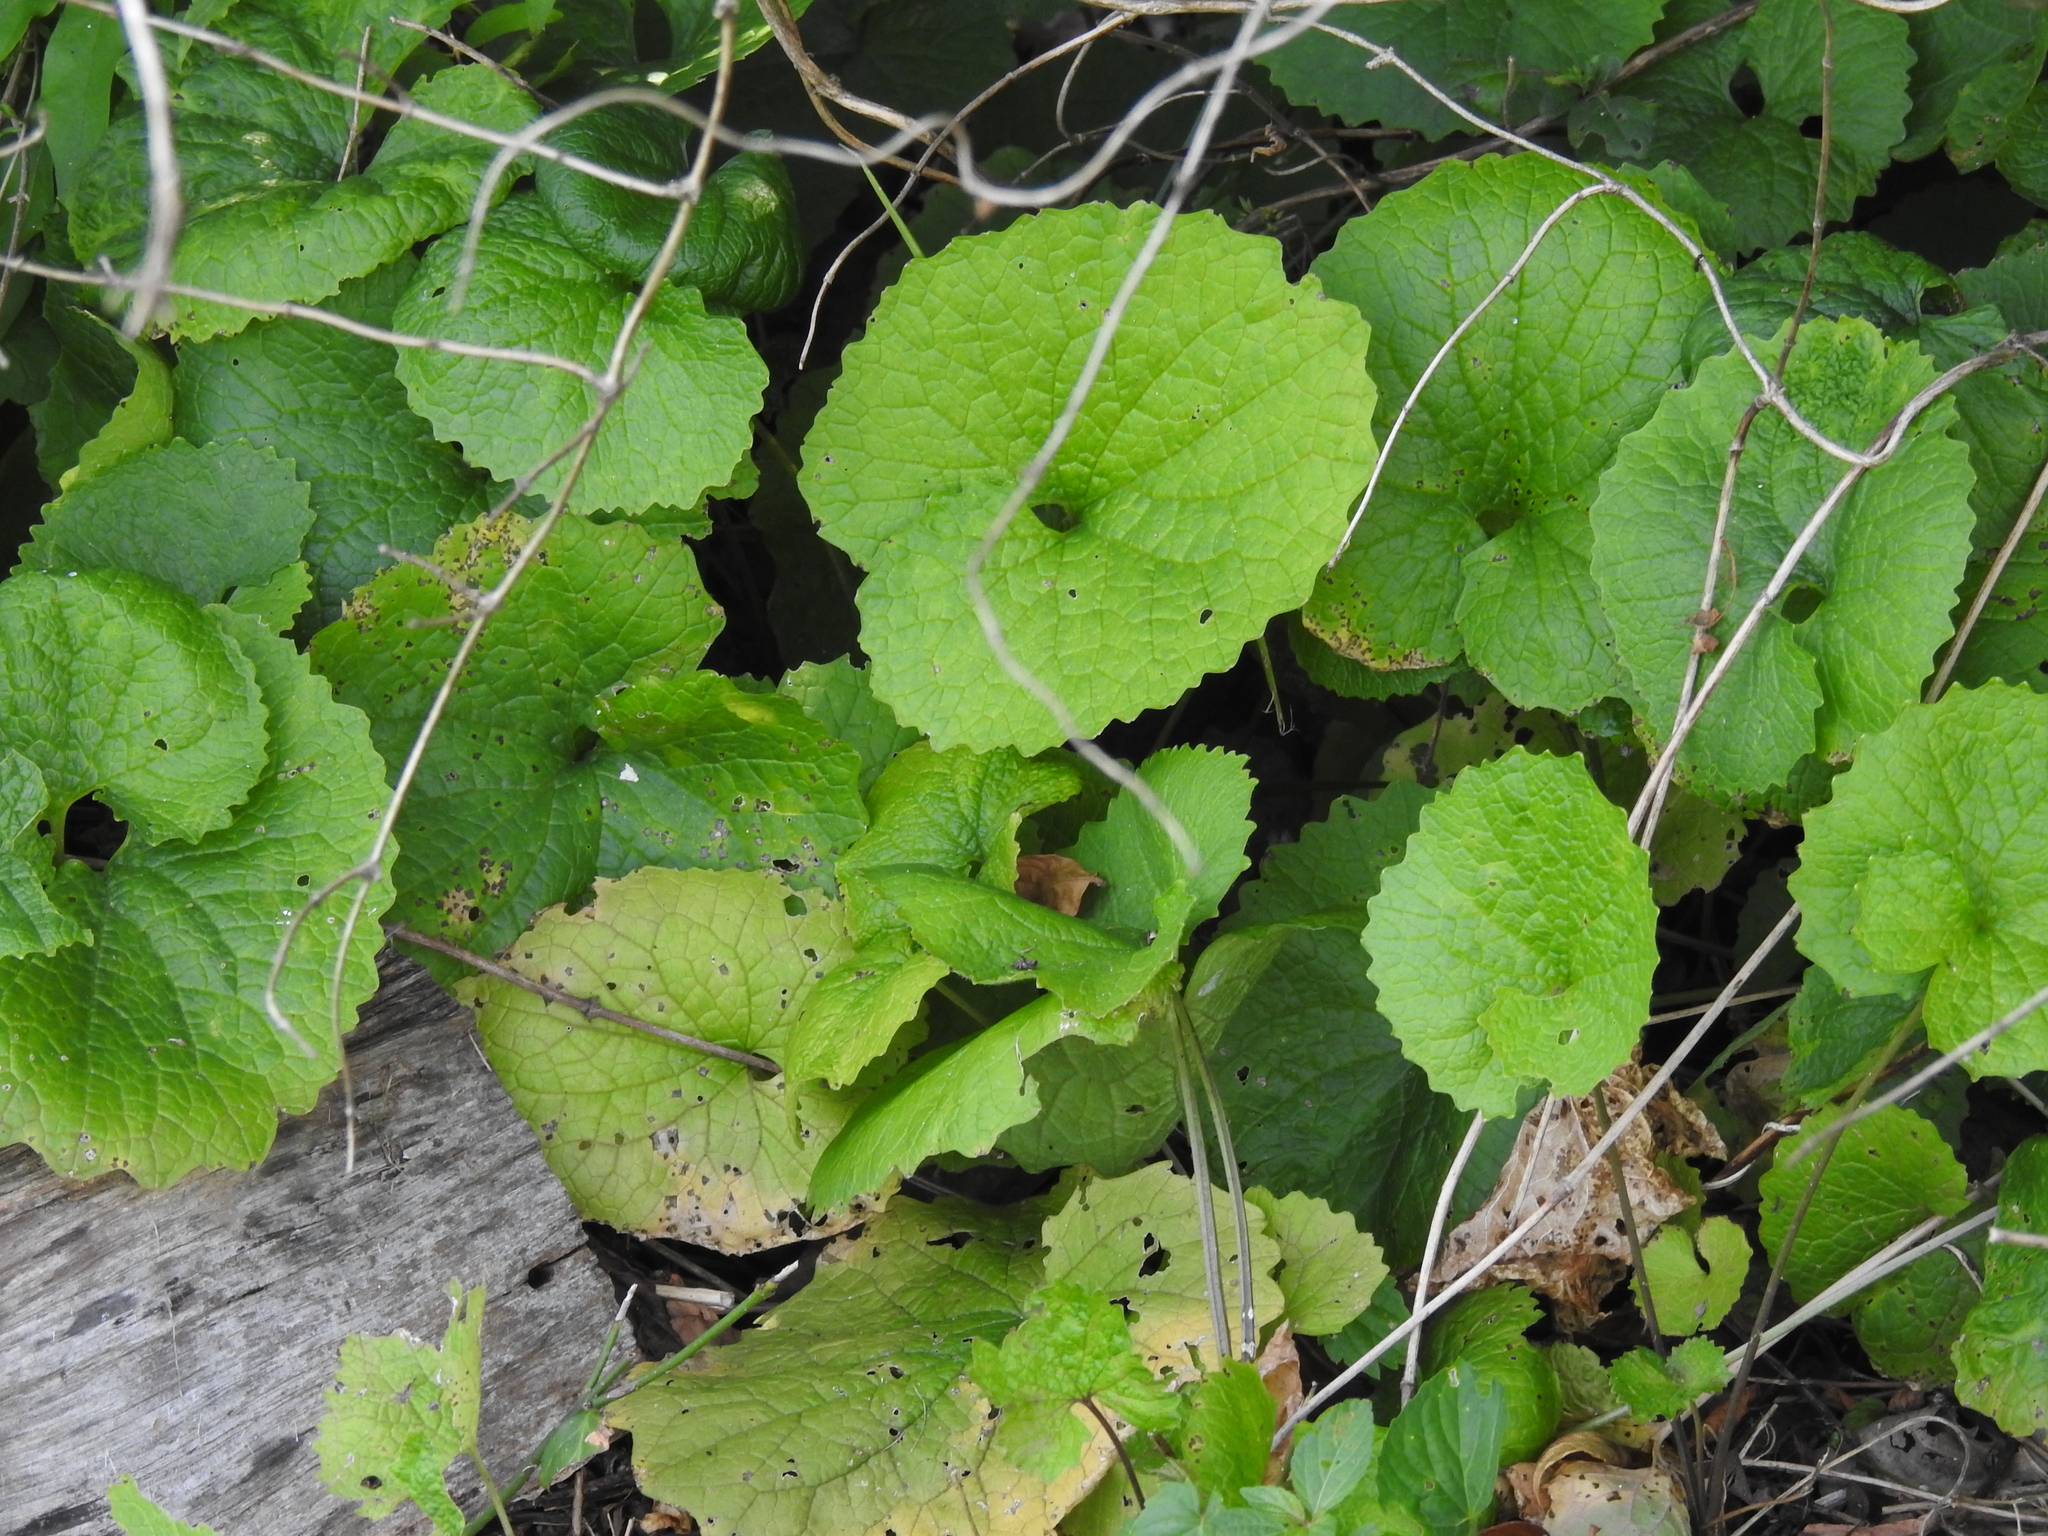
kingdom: Plantae
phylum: Tracheophyta
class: Magnoliopsida
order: Brassicales
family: Brassicaceae
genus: Alliaria
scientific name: Alliaria petiolata
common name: Garlic mustard
